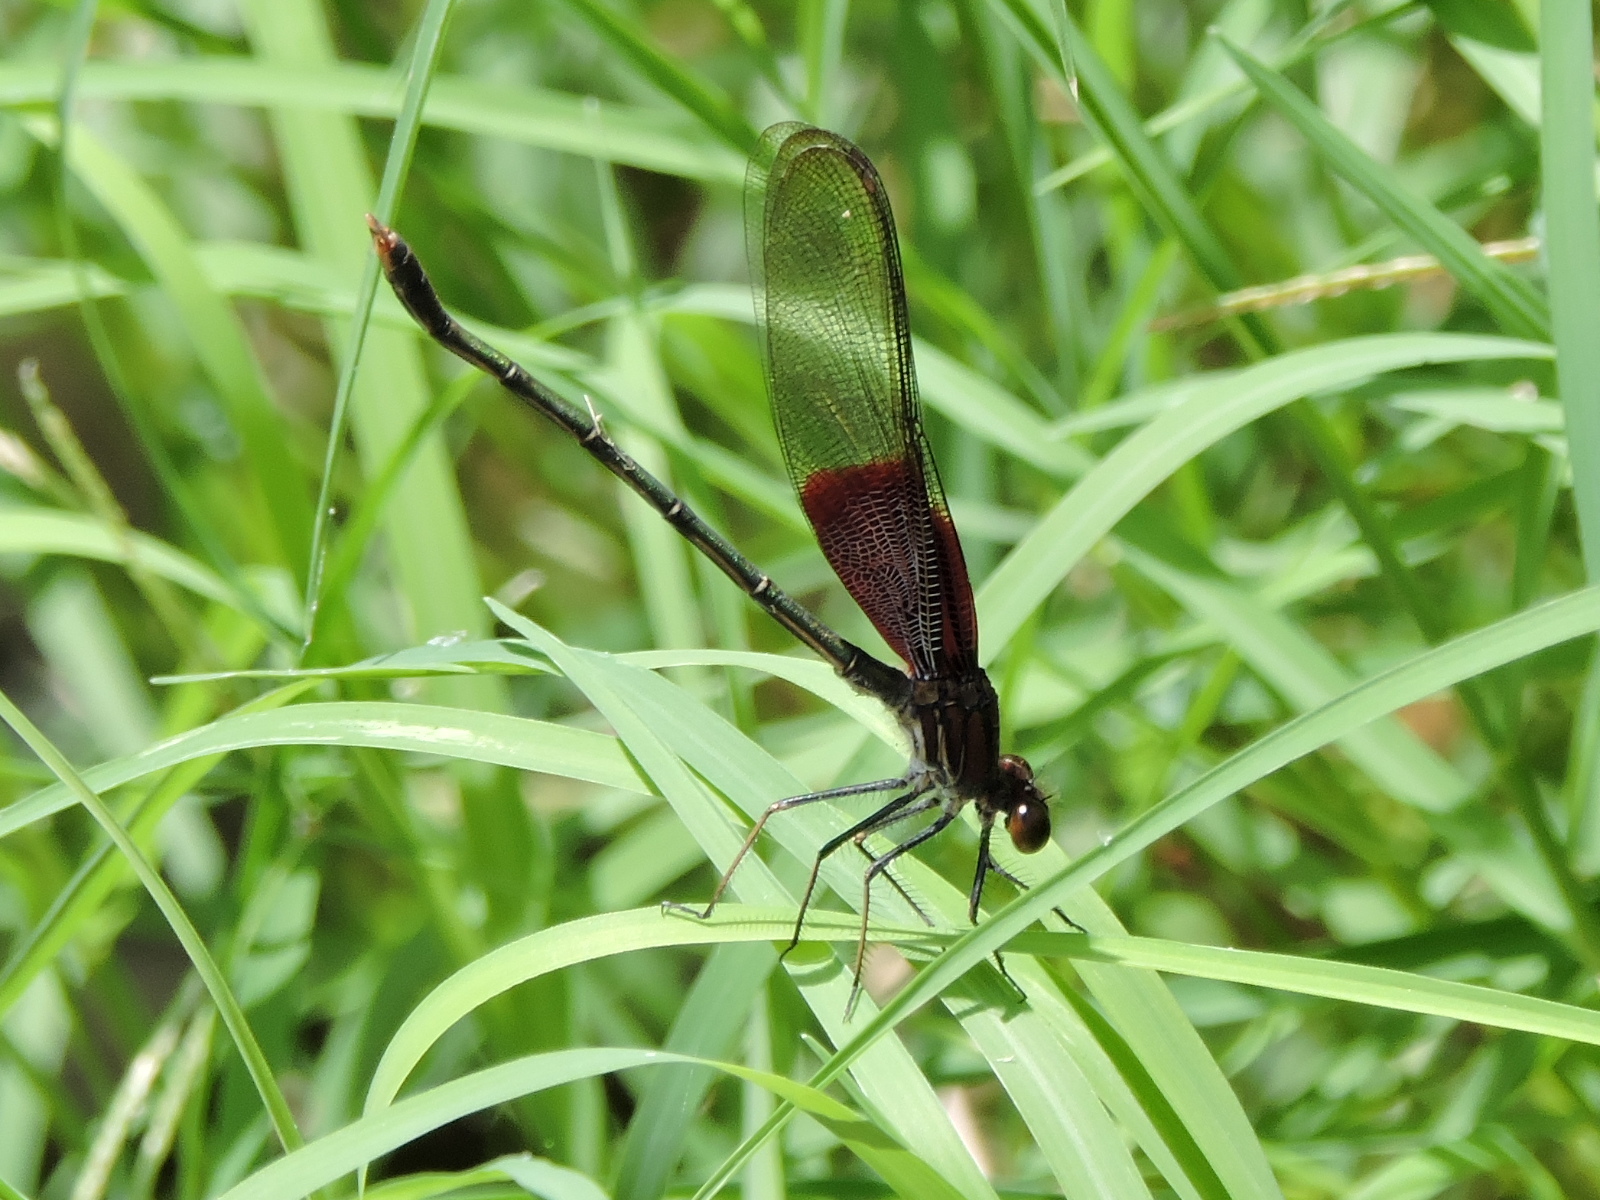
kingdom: Animalia
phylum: Arthropoda
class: Insecta
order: Odonata
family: Calopterygidae
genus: Hetaerina
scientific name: Hetaerina americana
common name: American rubyspot
